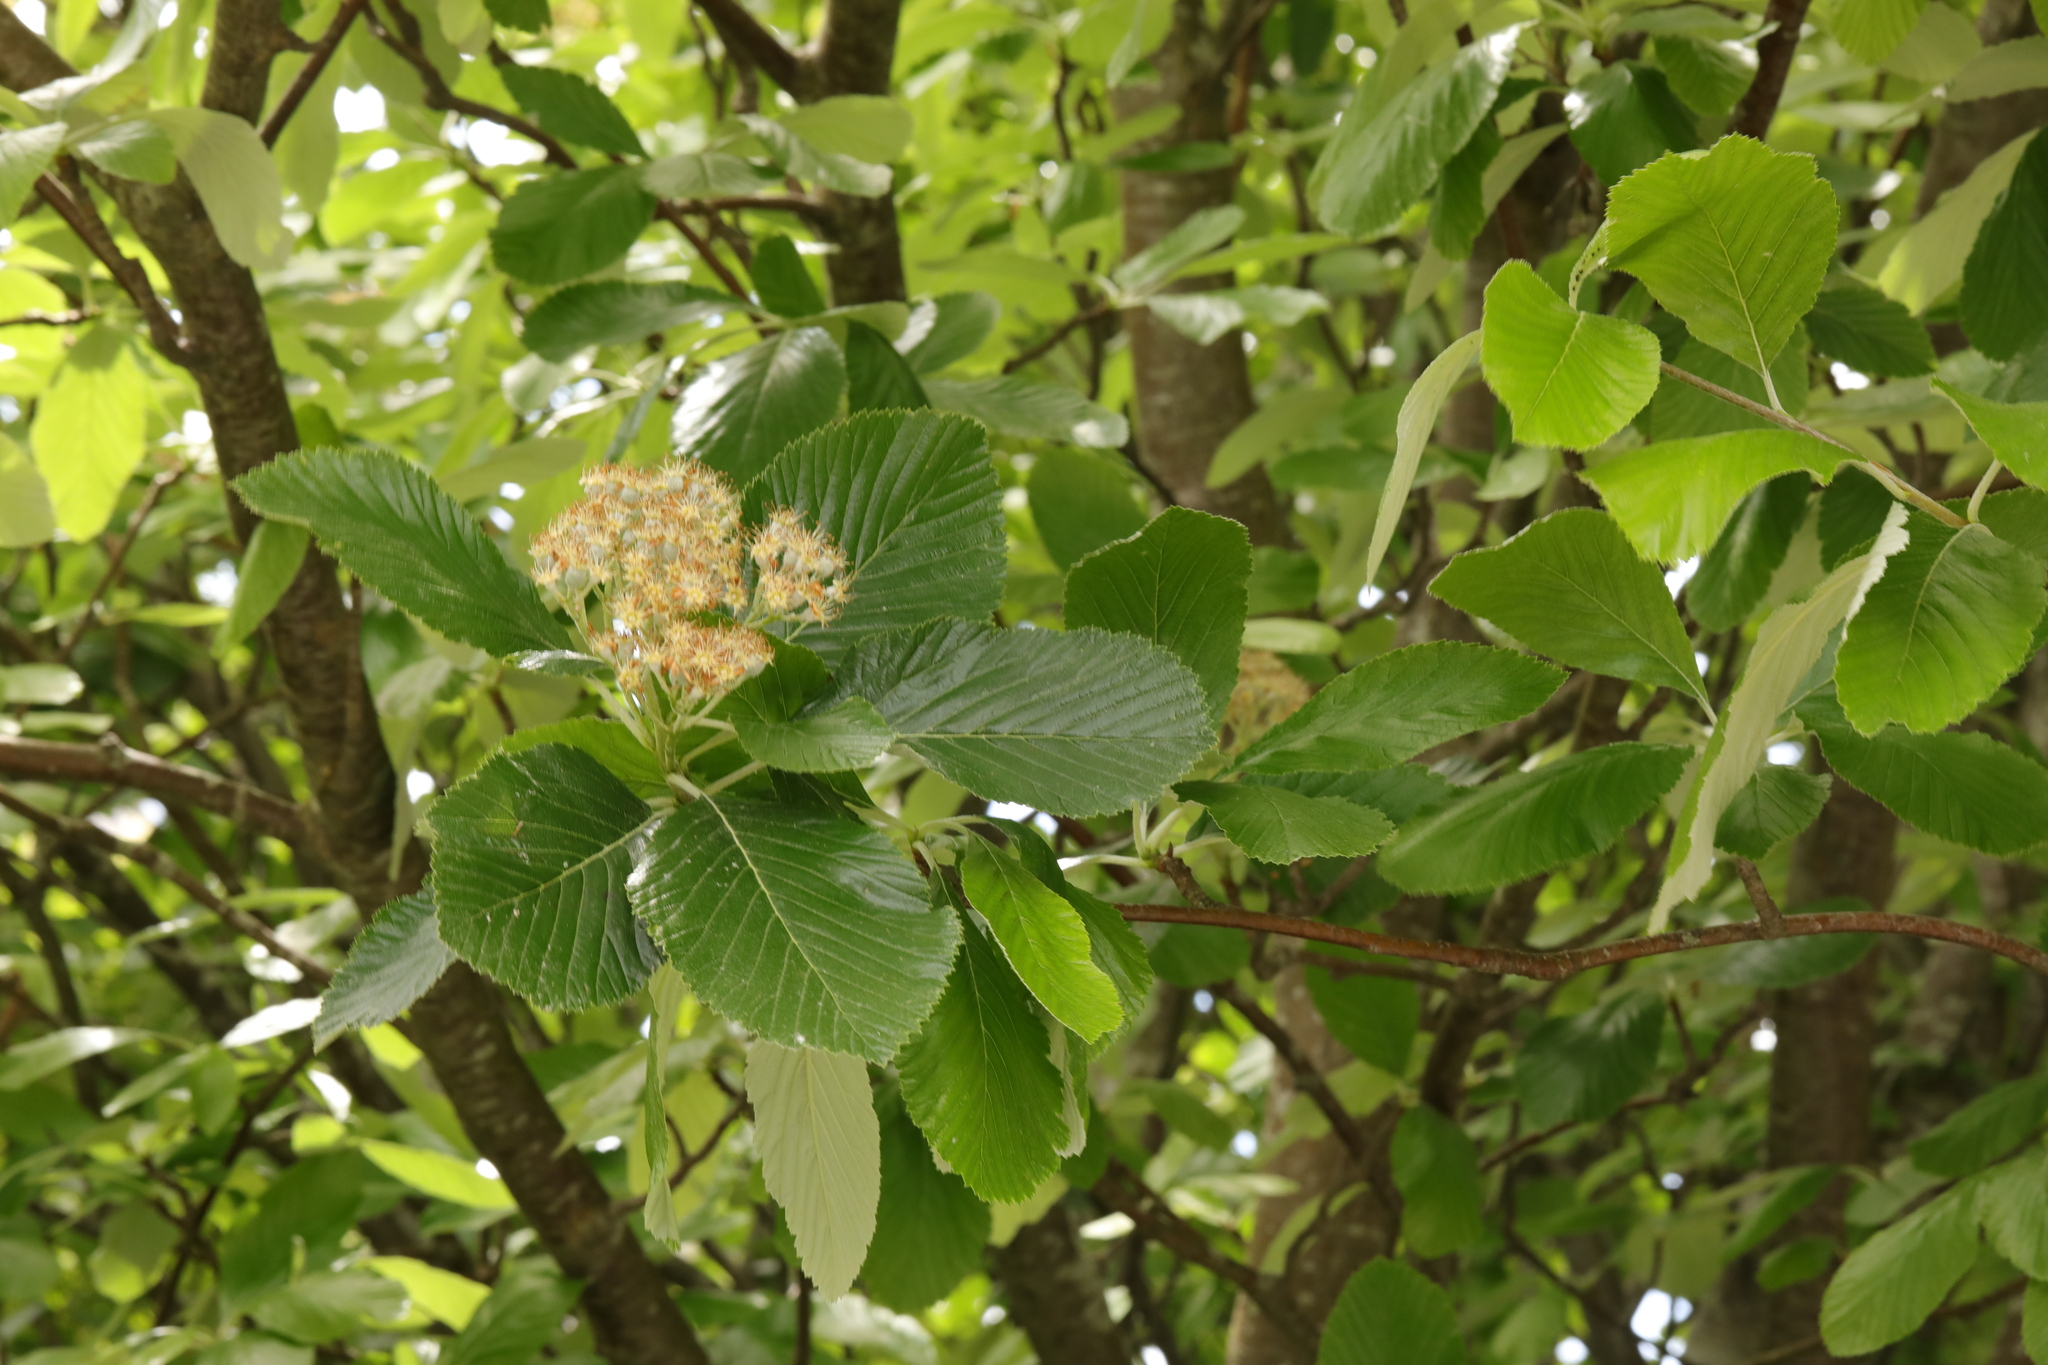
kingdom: Plantae
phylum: Tracheophyta
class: Magnoliopsida
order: Rosales
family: Rosaceae
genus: Aria
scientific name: Aria edulis
